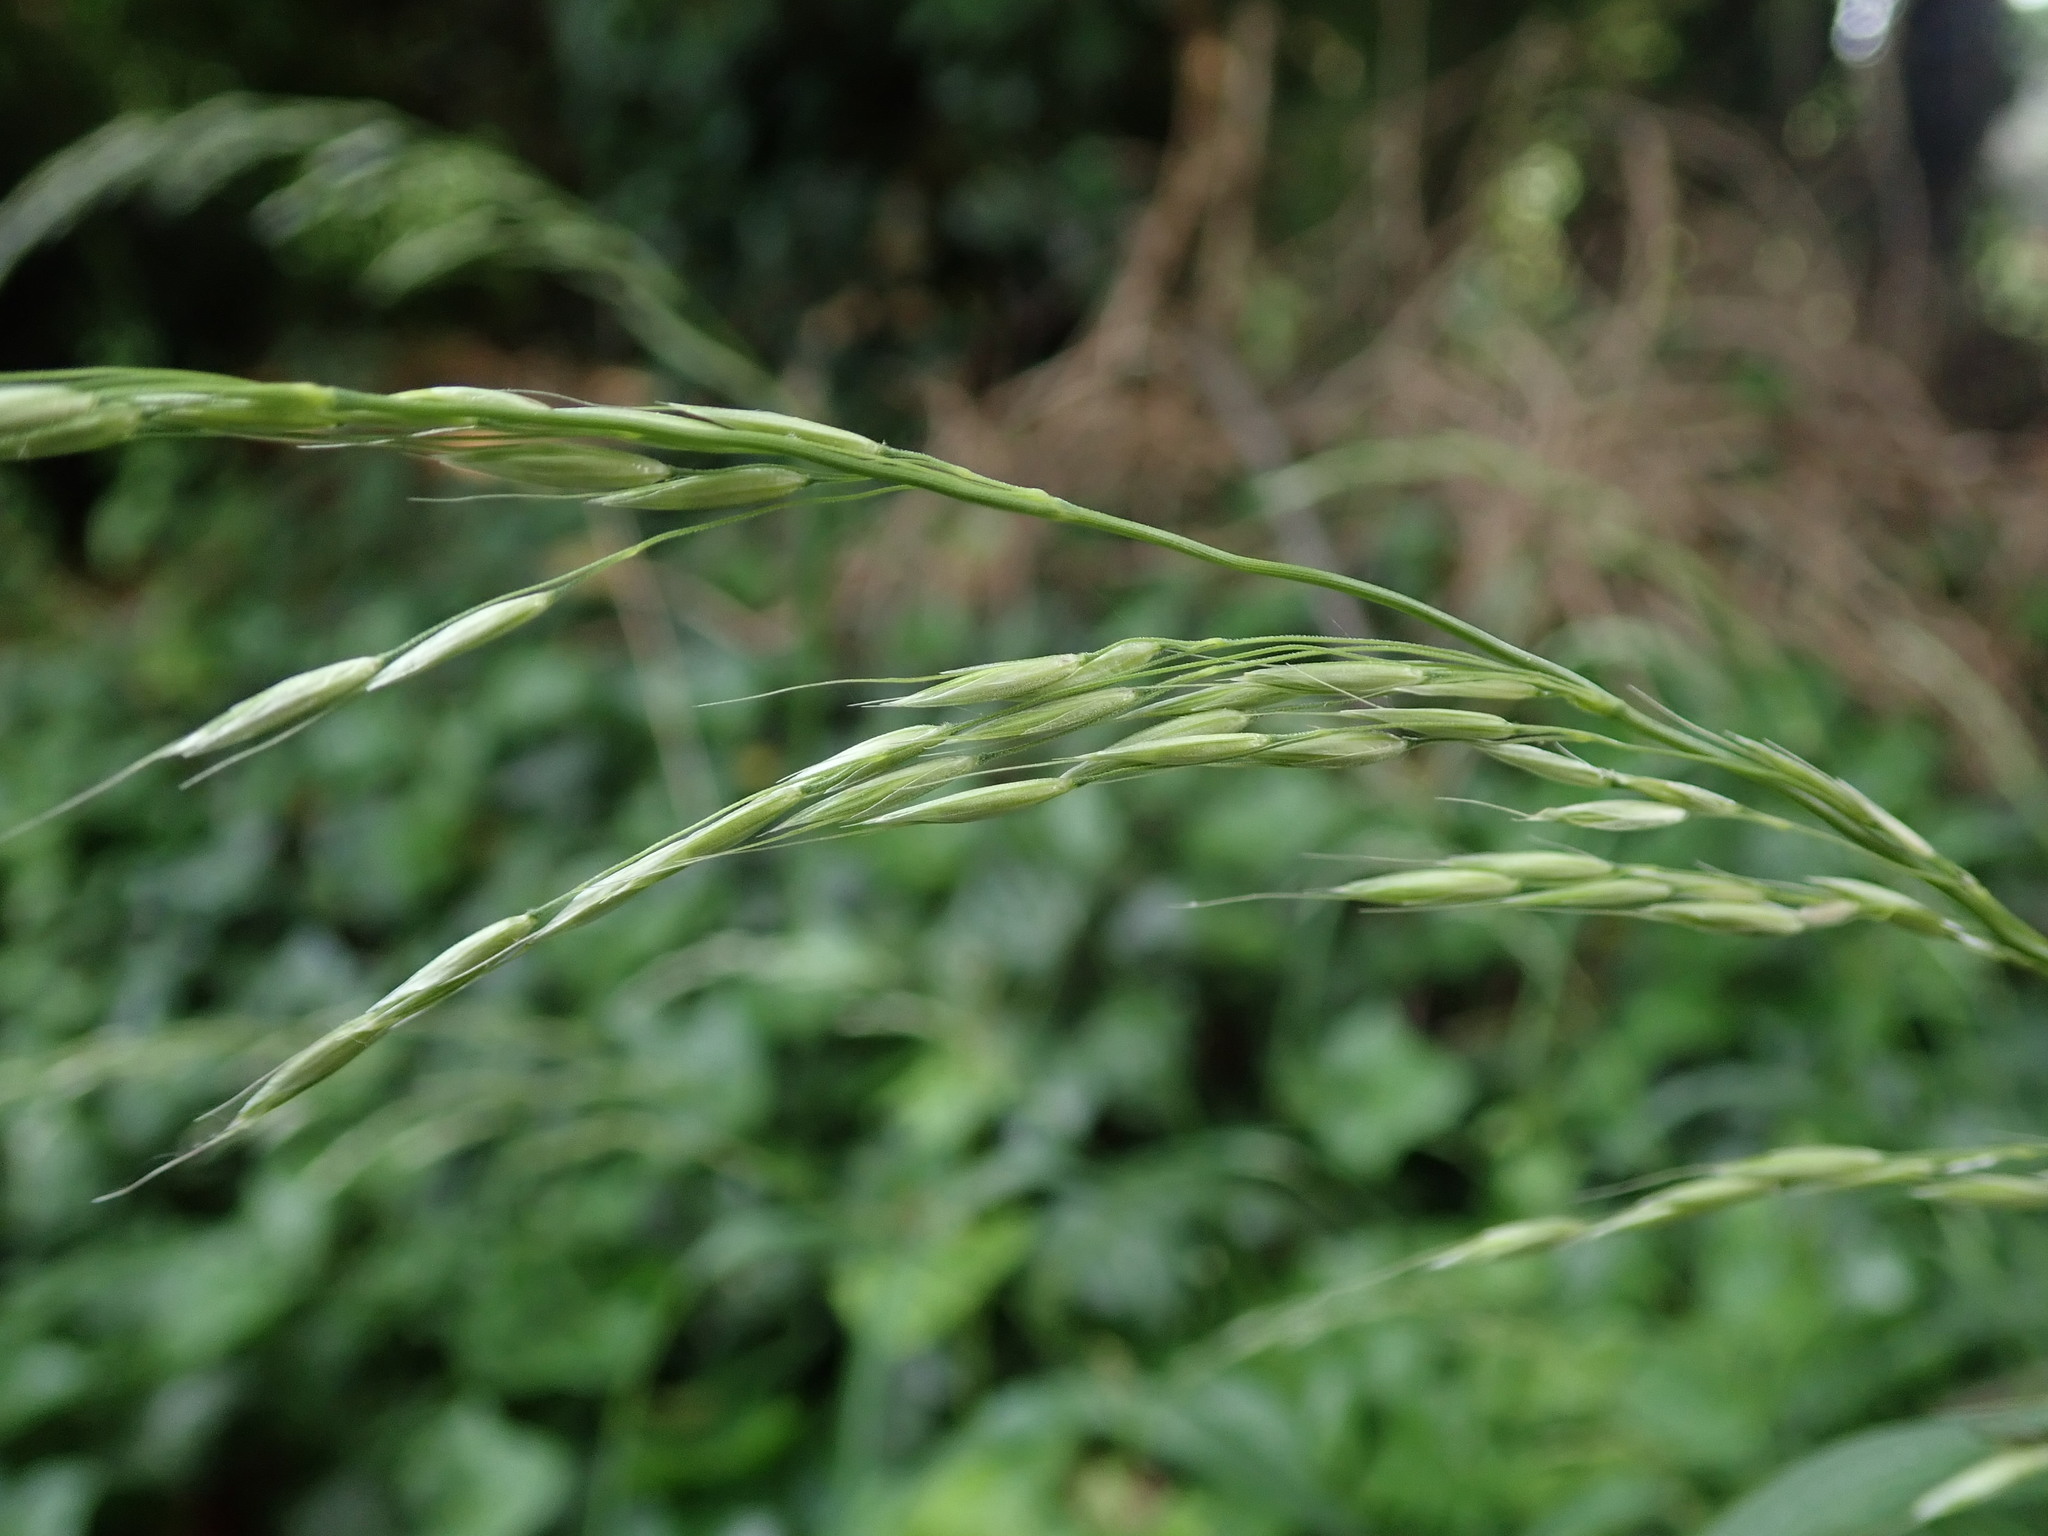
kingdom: Plantae
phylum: Tracheophyta
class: Liliopsida
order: Poales
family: Poaceae
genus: Arrhenatherum
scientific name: Arrhenatherum elatius
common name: Tall oatgrass
